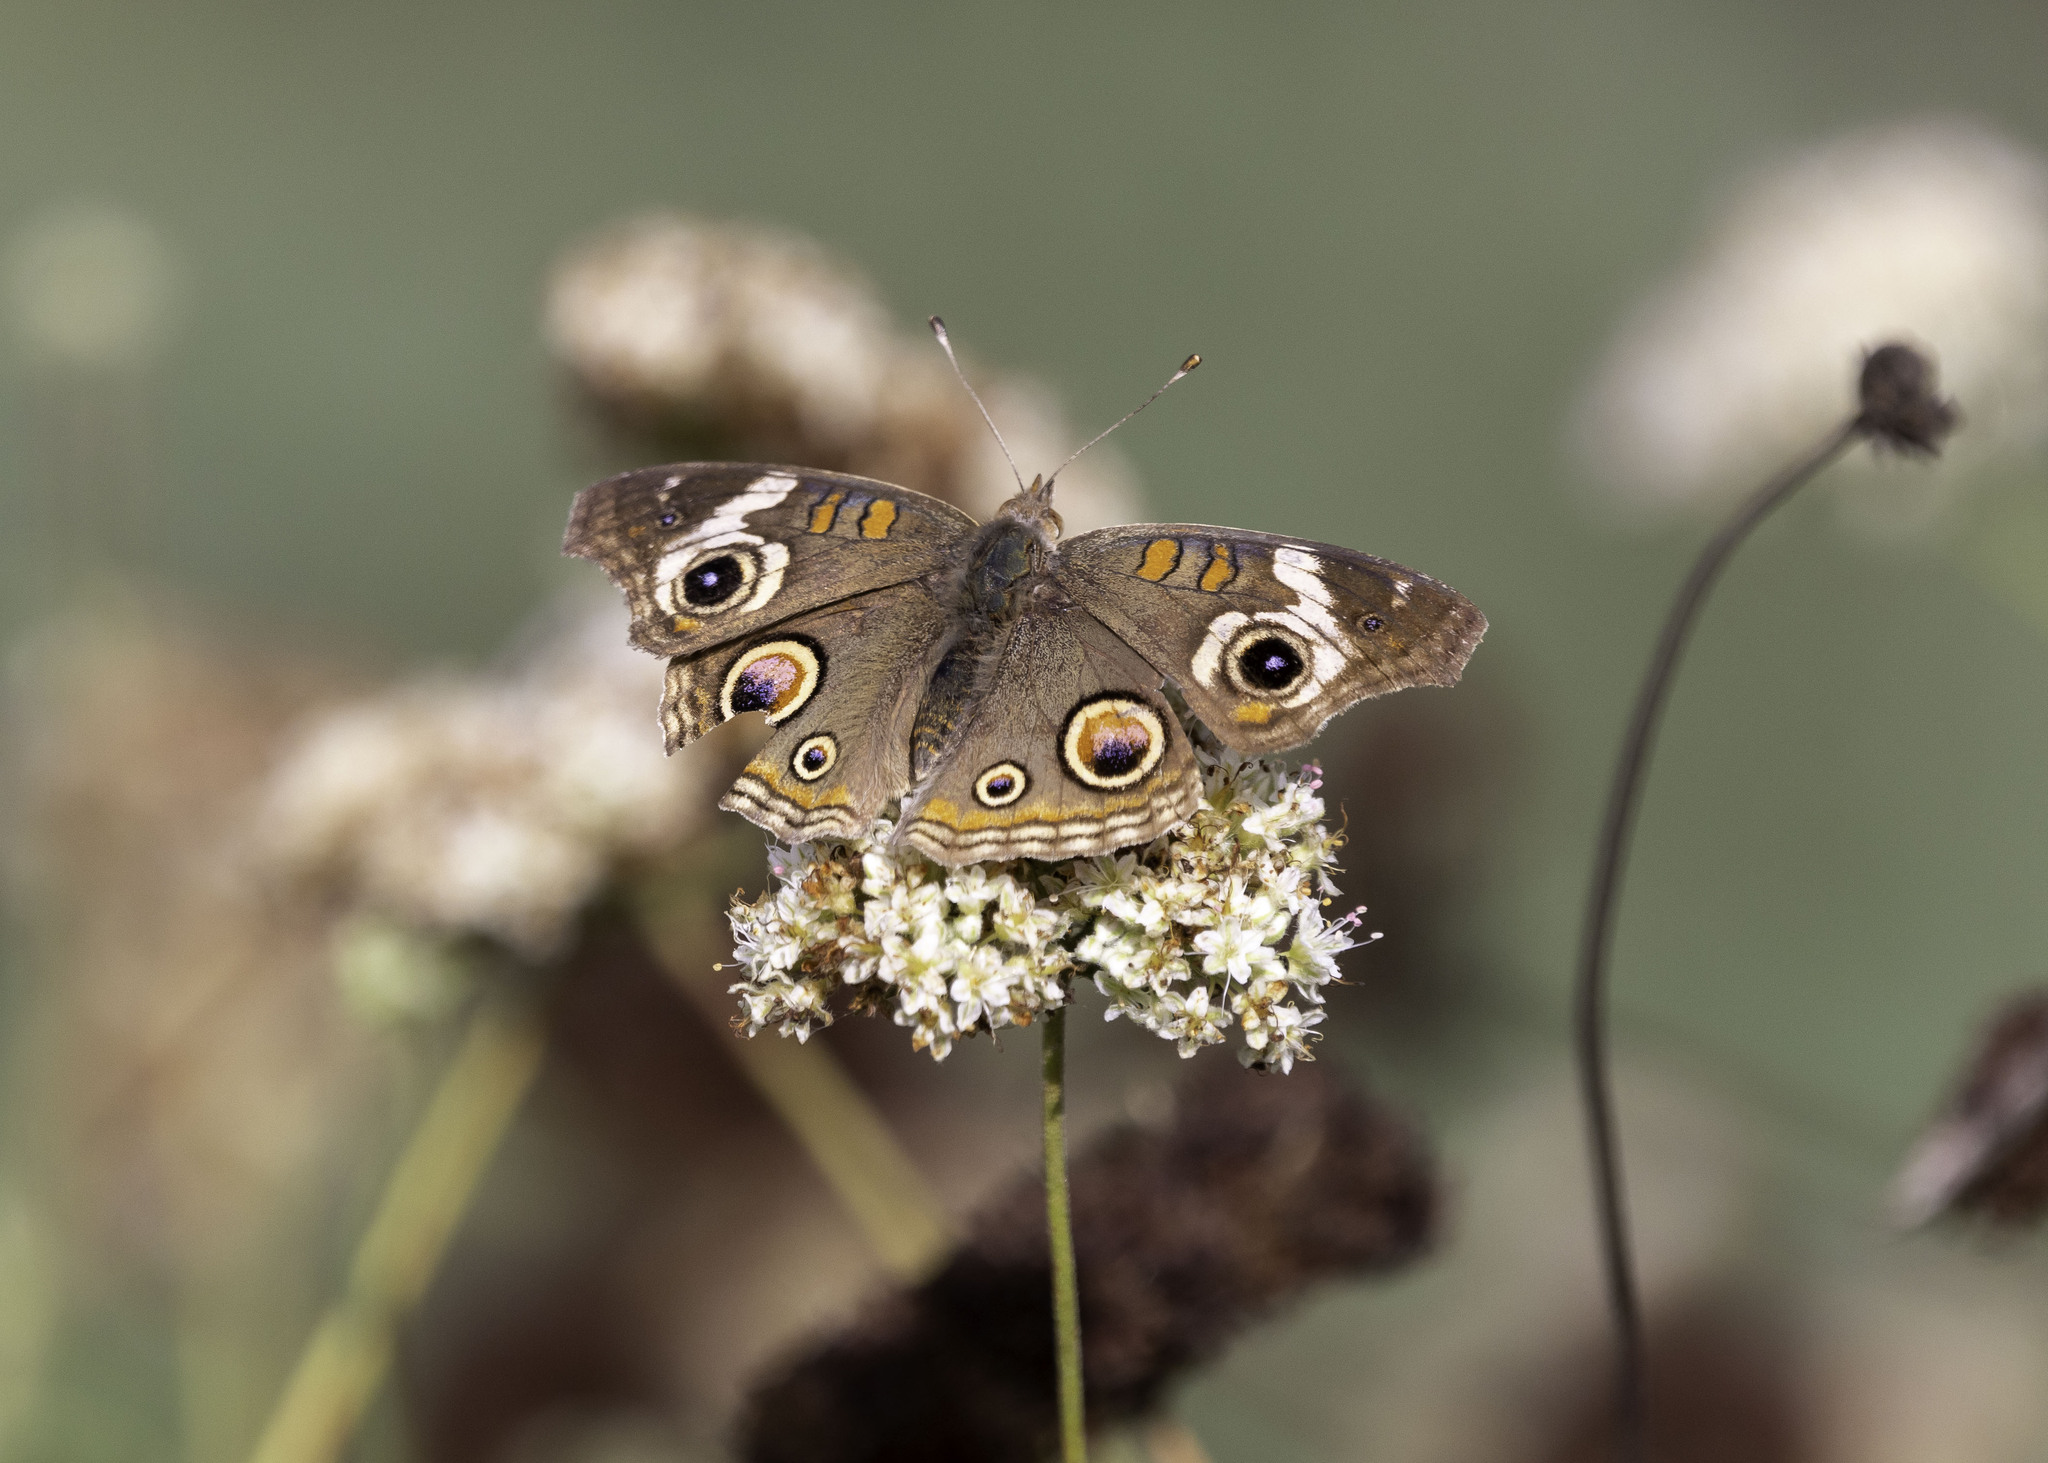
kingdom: Animalia
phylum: Arthropoda
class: Insecta
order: Lepidoptera
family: Nymphalidae
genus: Junonia
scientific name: Junonia grisea
